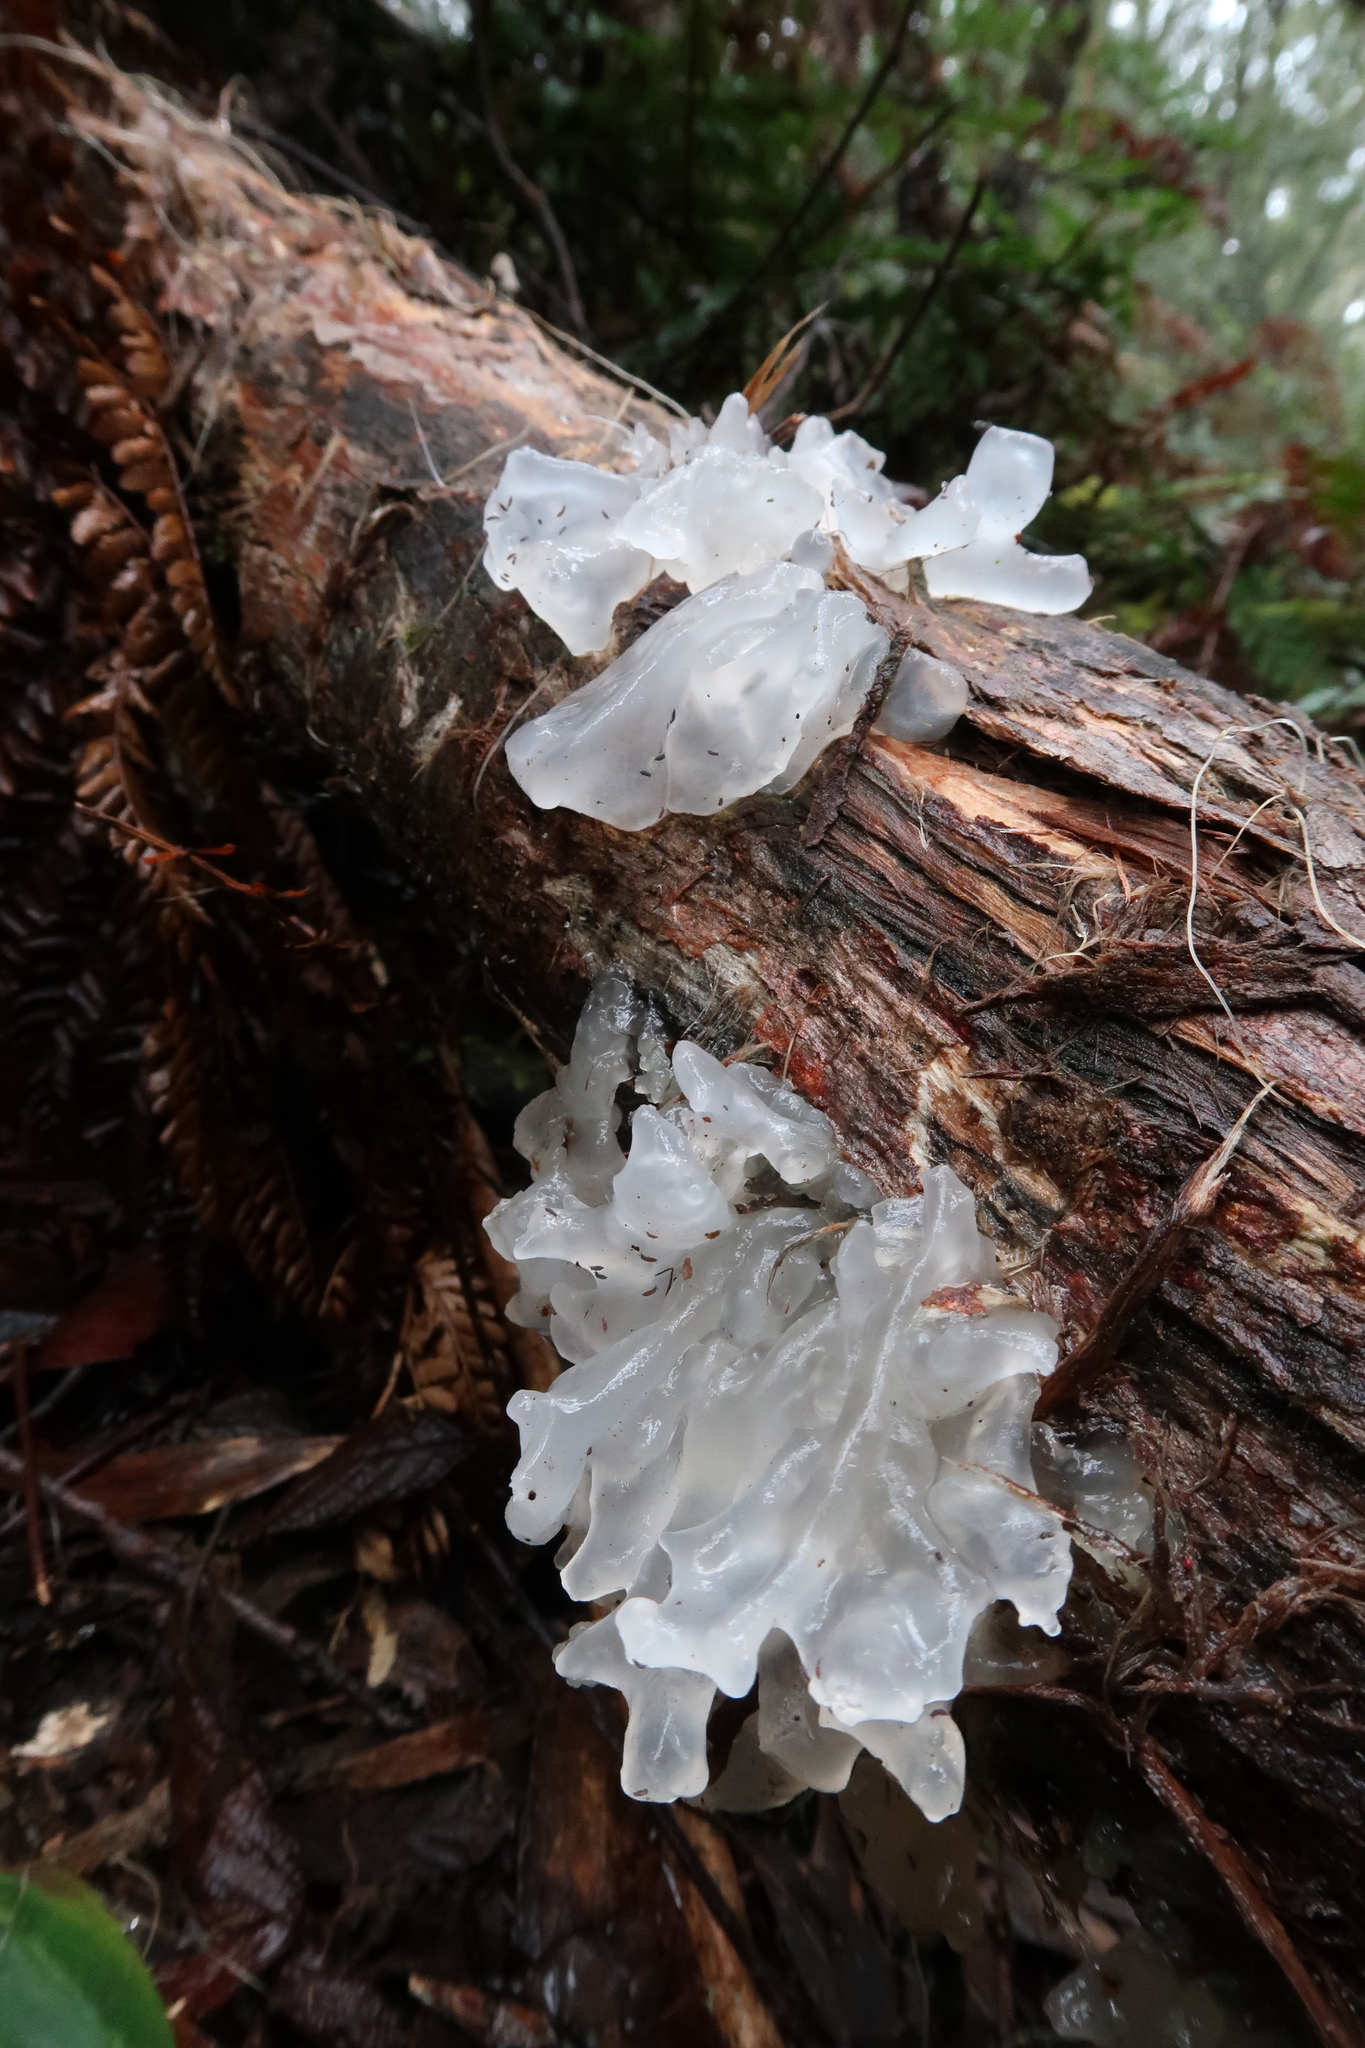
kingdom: Fungi
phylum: Basidiomycota
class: Tremellomycetes
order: Tremellales
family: Tremellaceae
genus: Tremella
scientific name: Tremella fuciformis
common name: Snow fungus
